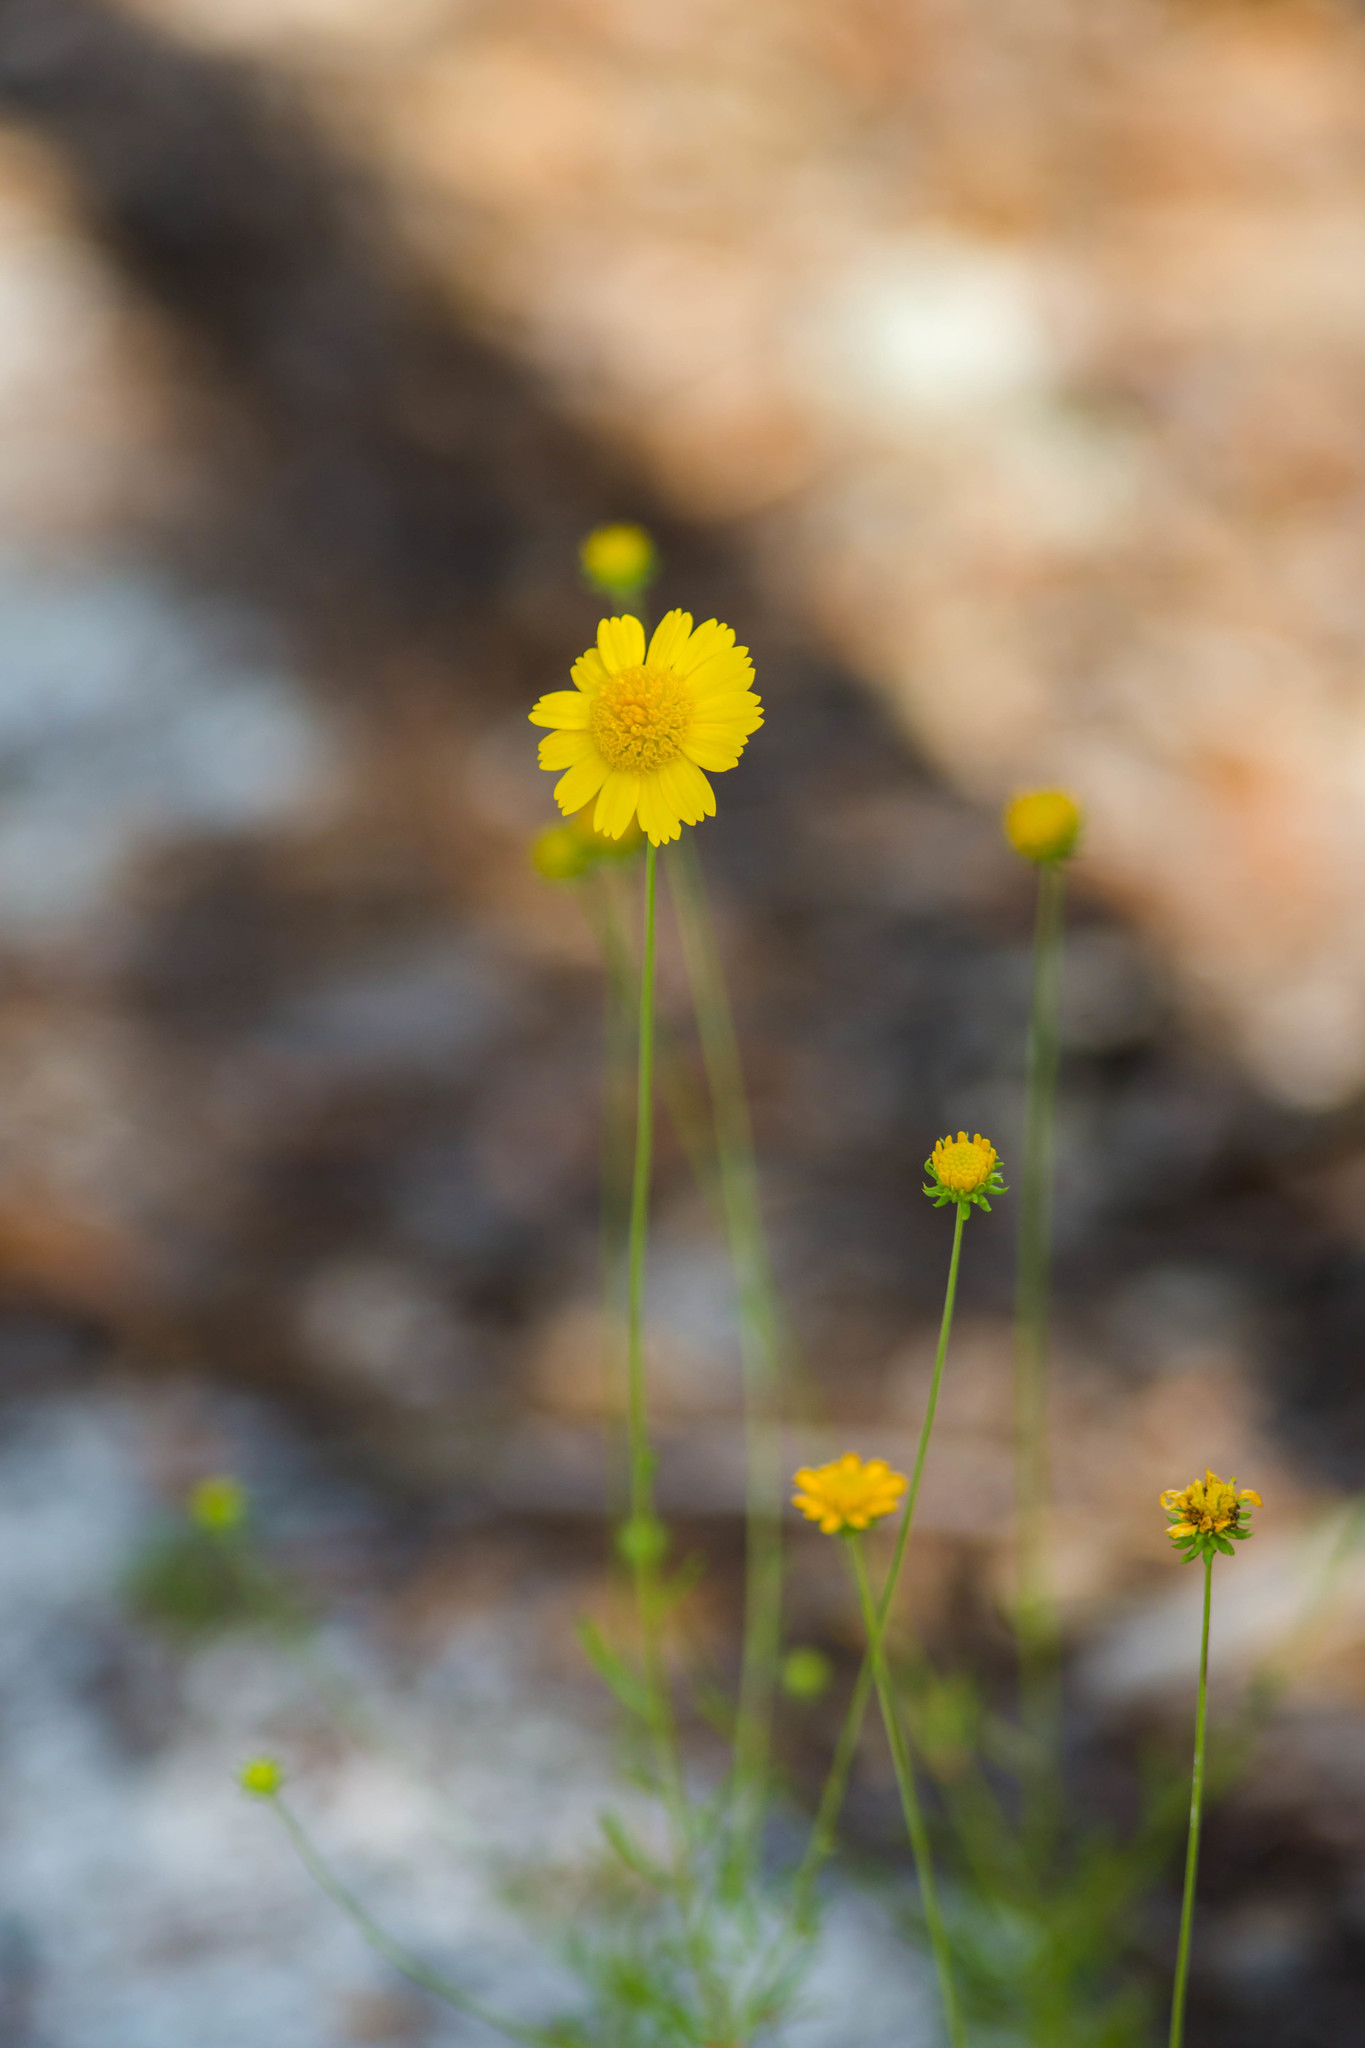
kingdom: Plantae
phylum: Tracheophyta
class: Magnoliopsida
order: Asterales
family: Asteraceae
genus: Balduina
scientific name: Balduina angustifolia
